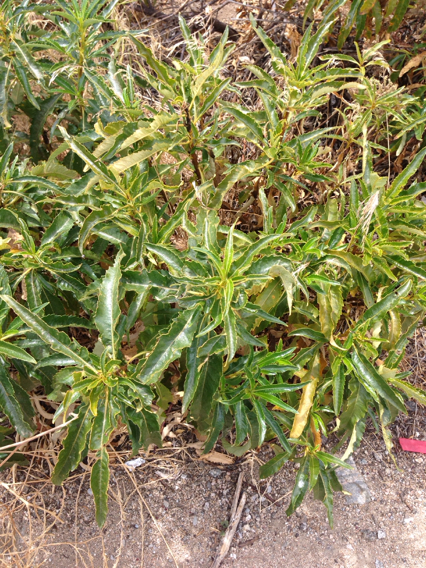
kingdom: Plantae
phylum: Tracheophyta
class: Magnoliopsida
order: Boraginales
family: Namaceae
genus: Eriodictyon
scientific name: Eriodictyon trichocalyx
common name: Hairy yerba-santa
